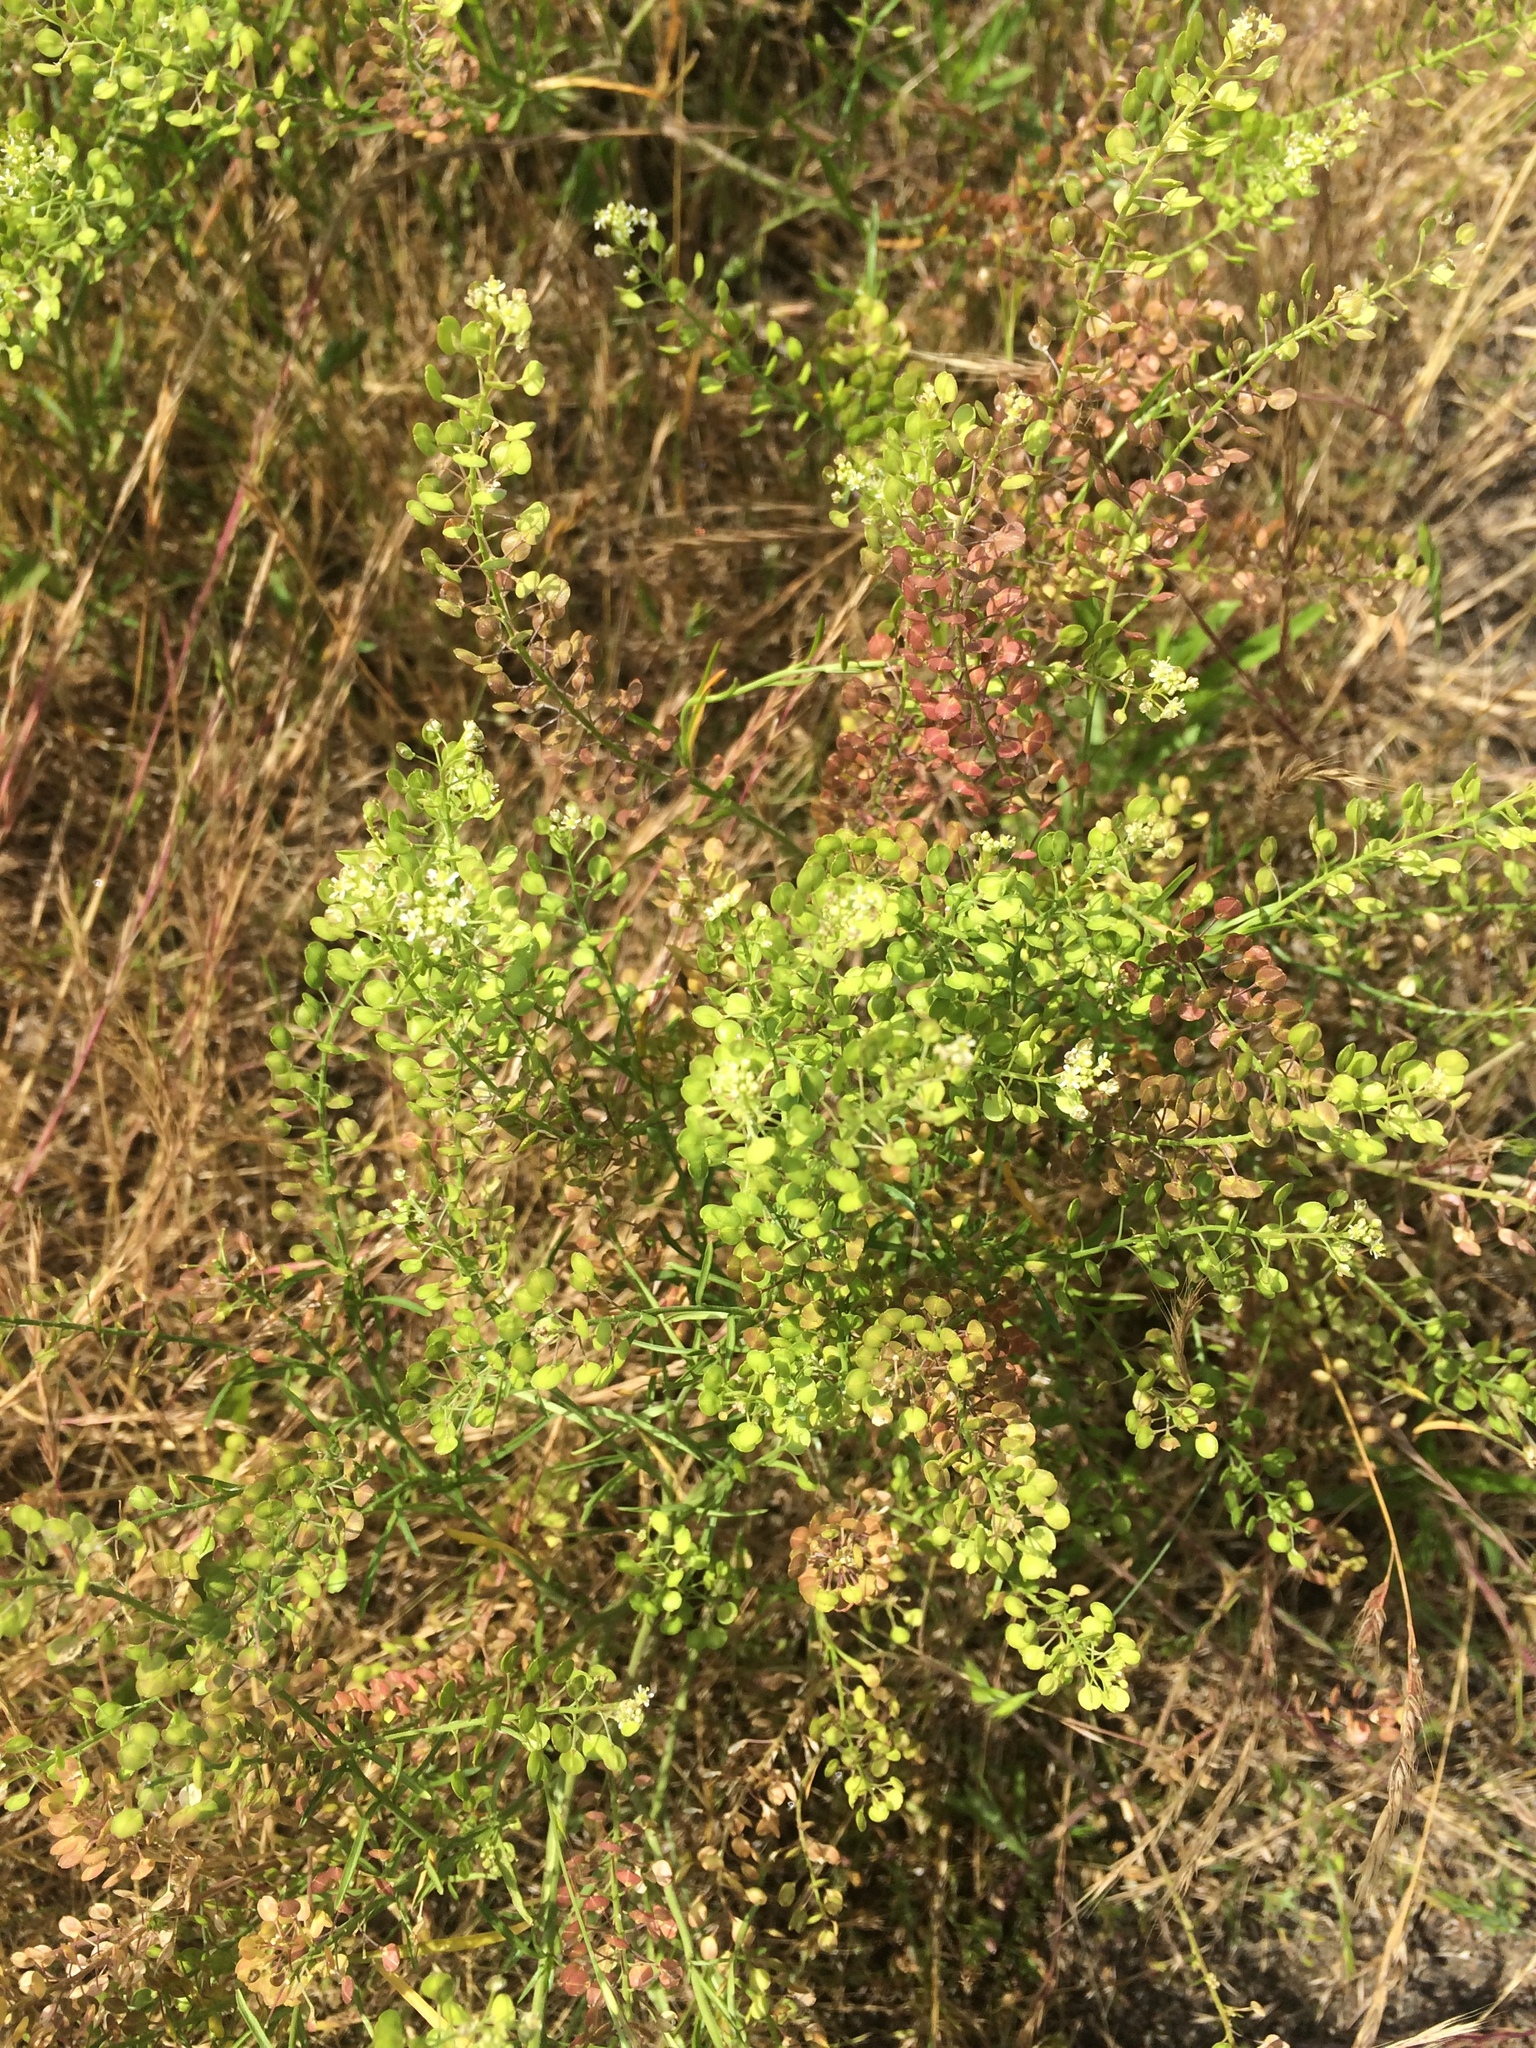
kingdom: Plantae
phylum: Tracheophyta
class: Magnoliopsida
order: Brassicales
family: Brassicaceae
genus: Lepidium
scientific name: Lepidium virginicum
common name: Least pepperwort
